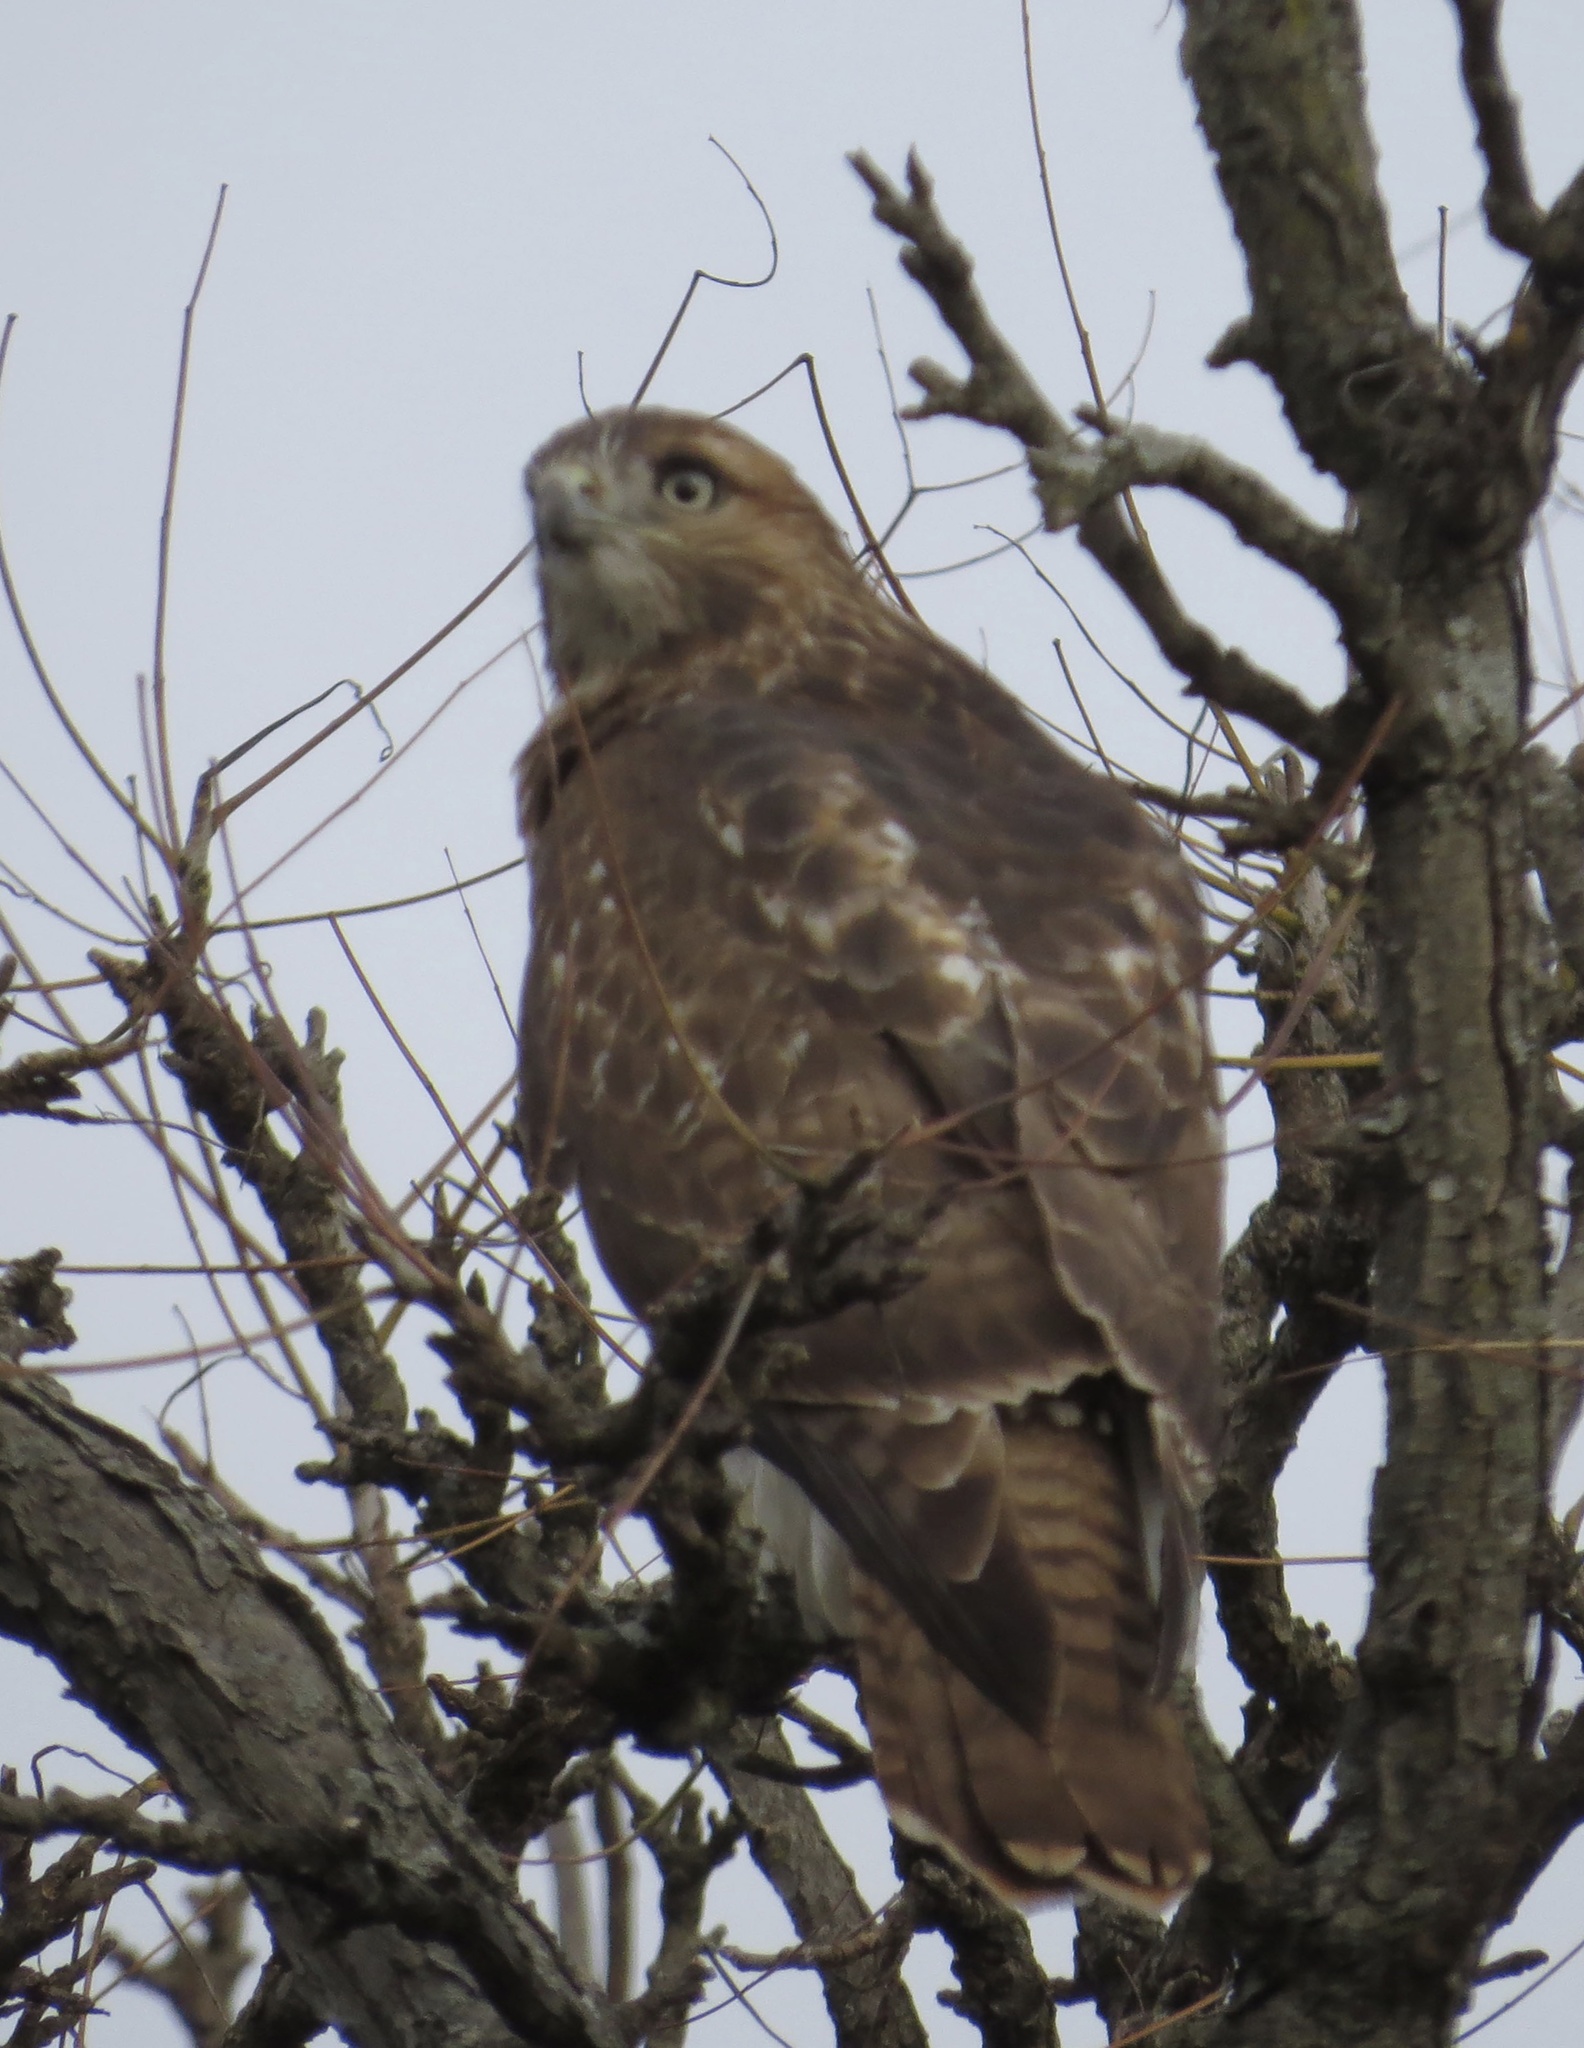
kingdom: Animalia
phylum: Chordata
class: Aves
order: Accipitriformes
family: Accipitridae
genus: Buteo
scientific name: Buteo jamaicensis
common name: Red-tailed hawk
